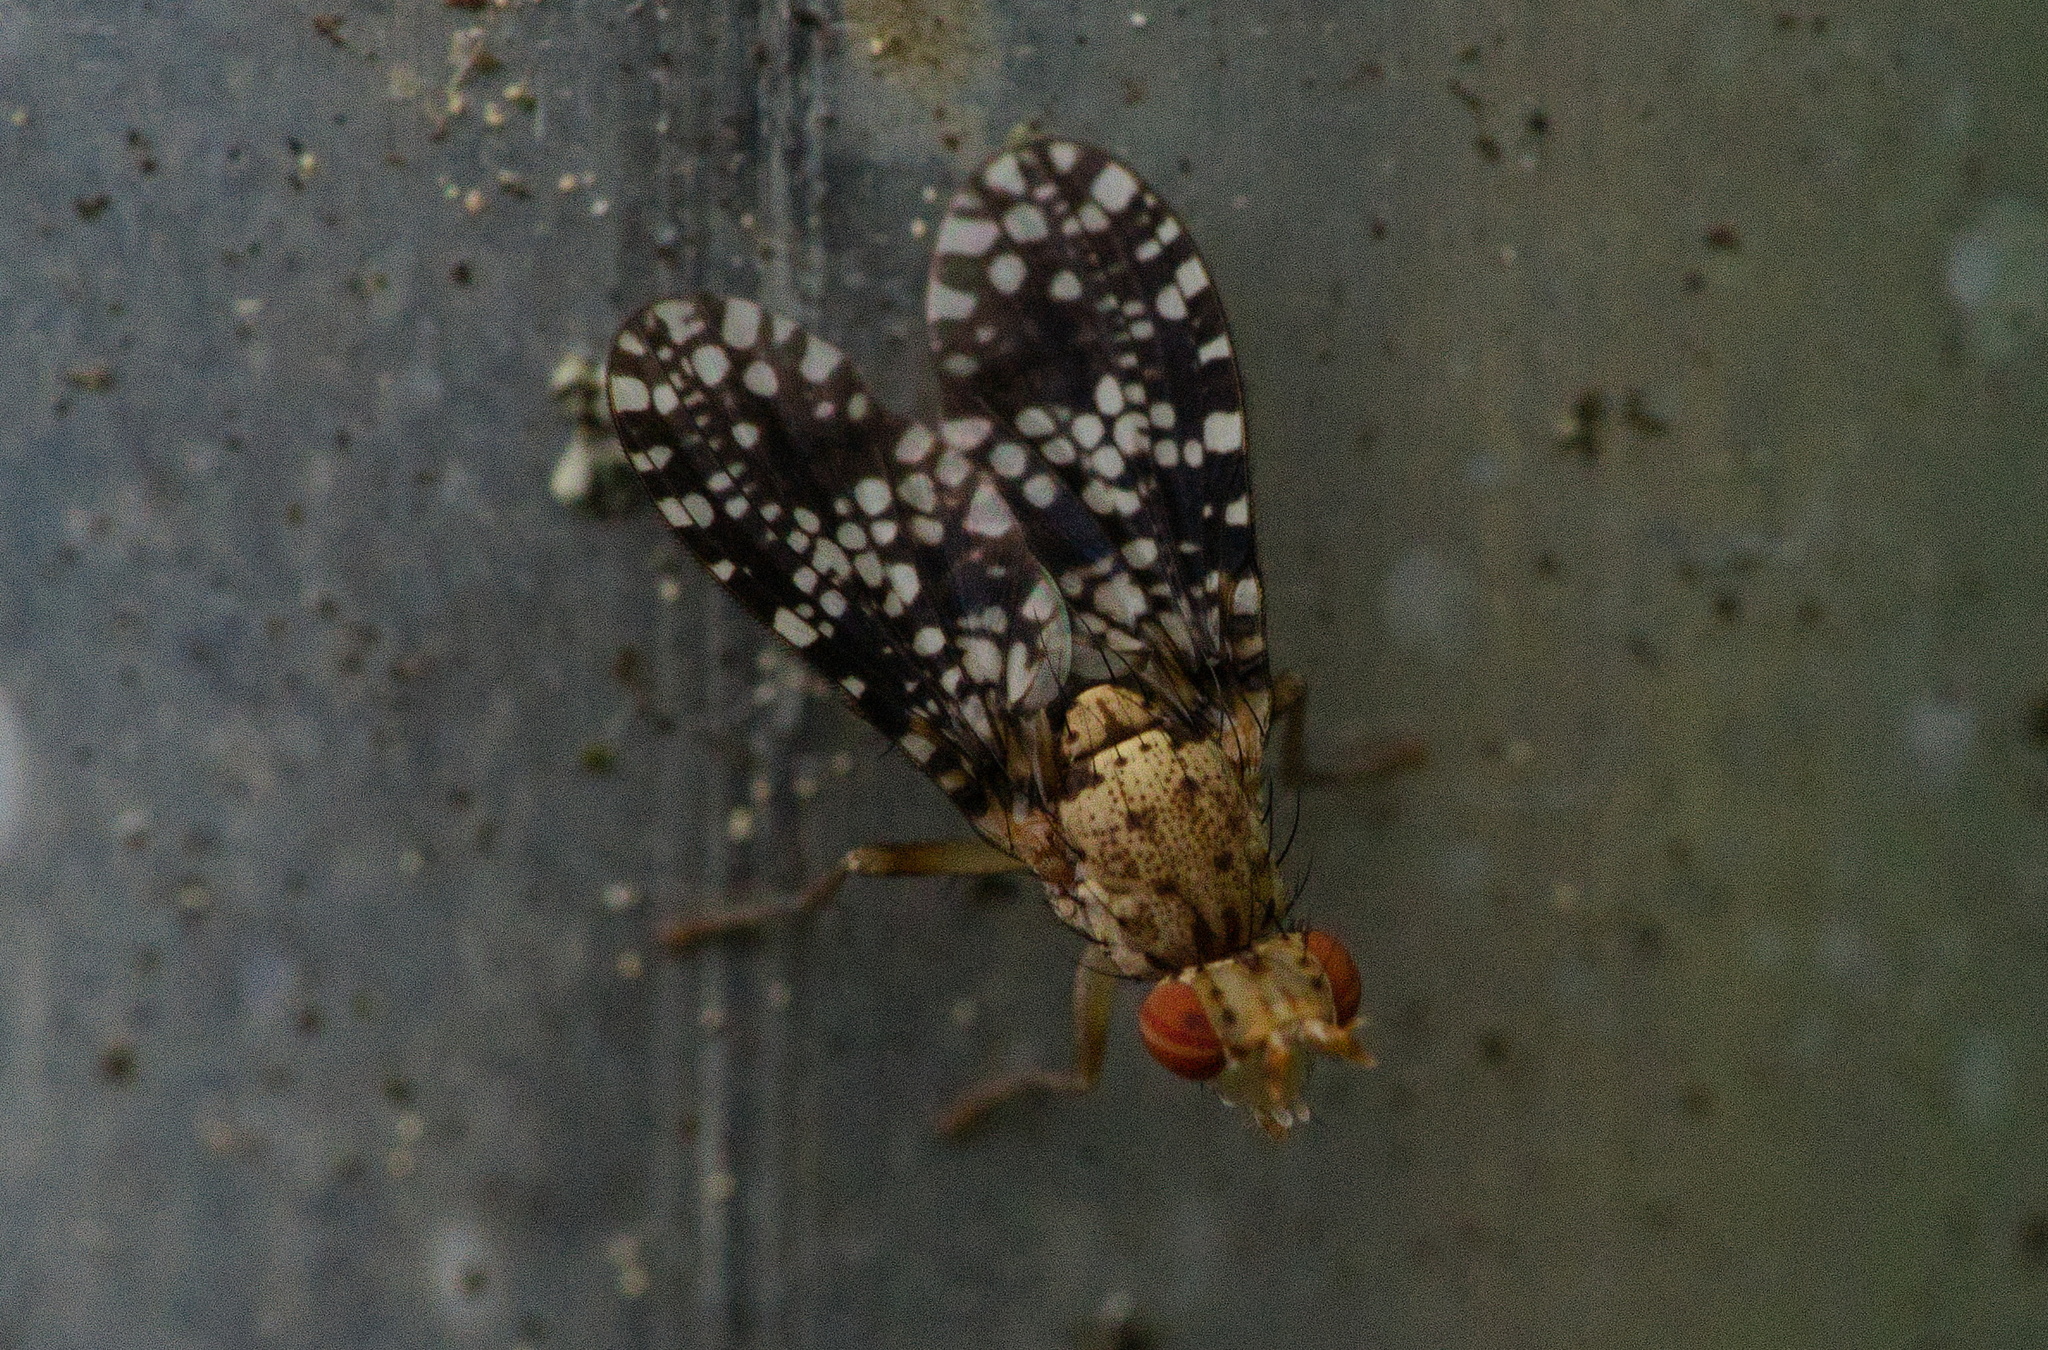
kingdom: Animalia
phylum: Arthropoda
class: Insecta
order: Diptera
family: Sciomyzidae
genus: Trypetoptera
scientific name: Trypetoptera punctulata
